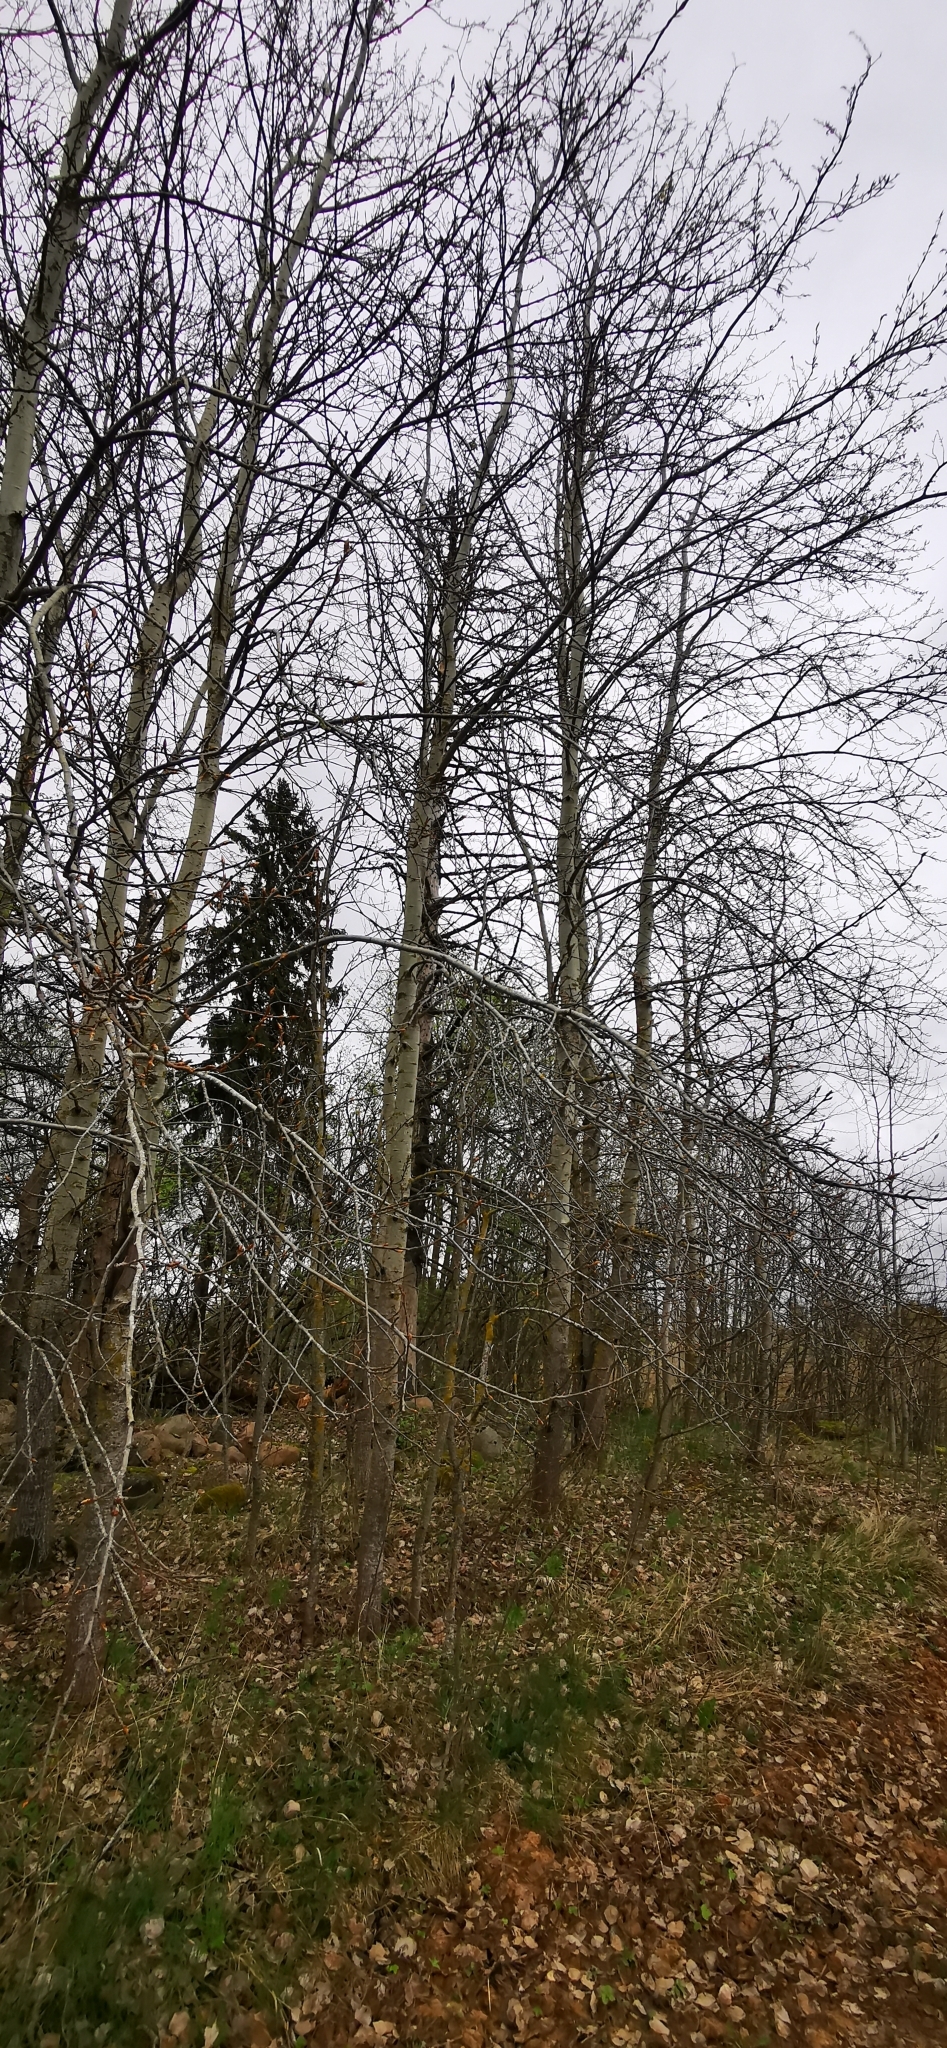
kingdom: Plantae
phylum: Tracheophyta
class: Magnoliopsida
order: Malpighiales
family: Salicaceae
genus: Populus
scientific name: Populus tremula
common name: European aspen
